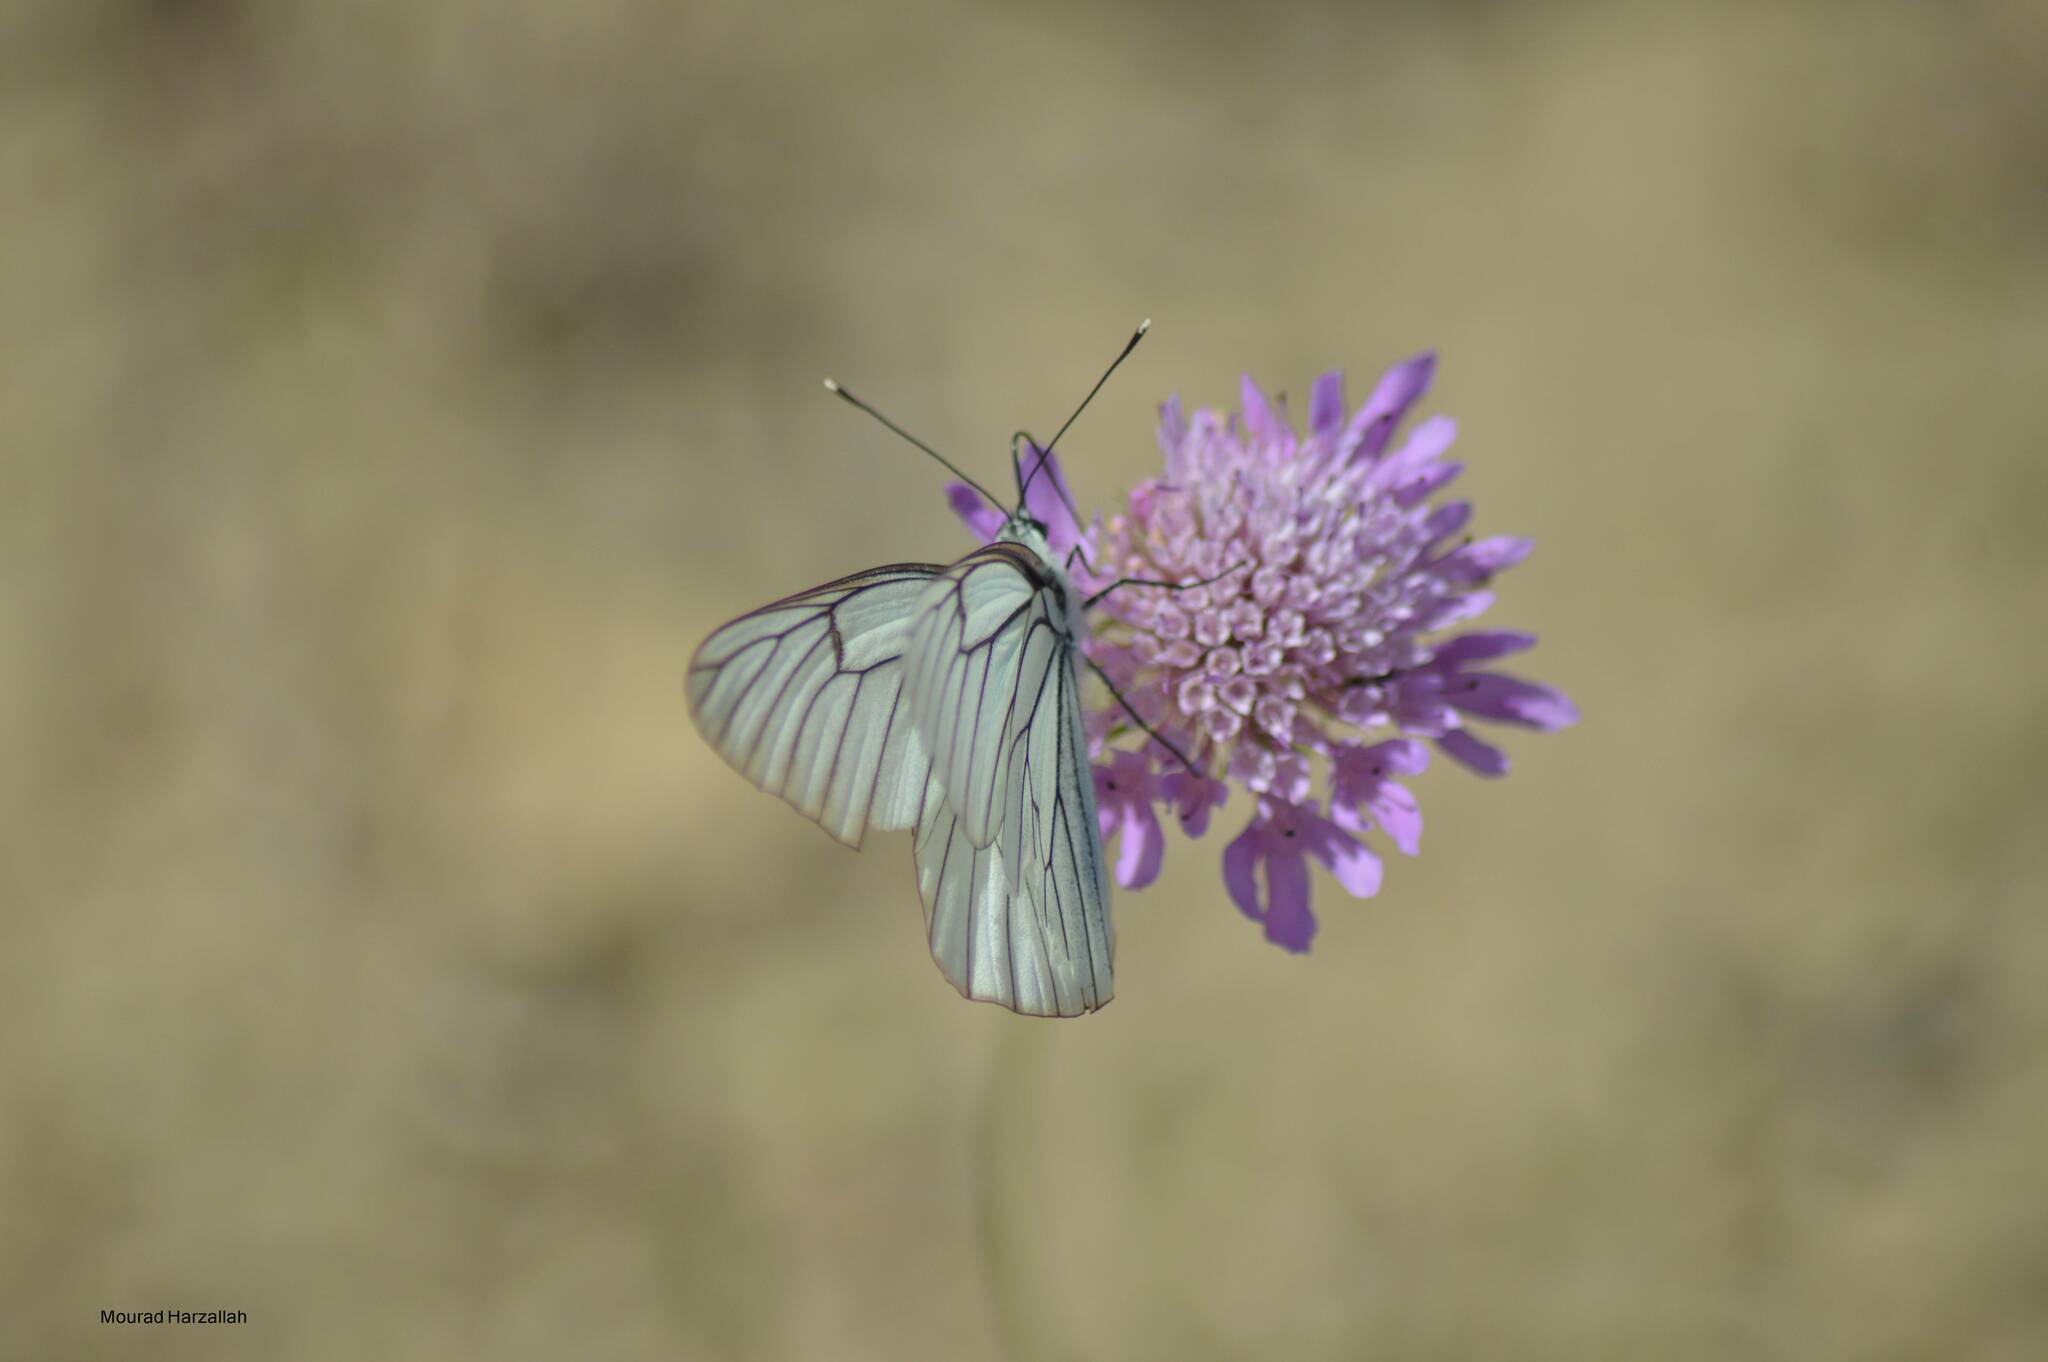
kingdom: Animalia
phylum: Arthropoda
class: Insecta
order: Lepidoptera
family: Pieridae
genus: Aporia
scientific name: Aporia crataegi
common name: Black-veined white
